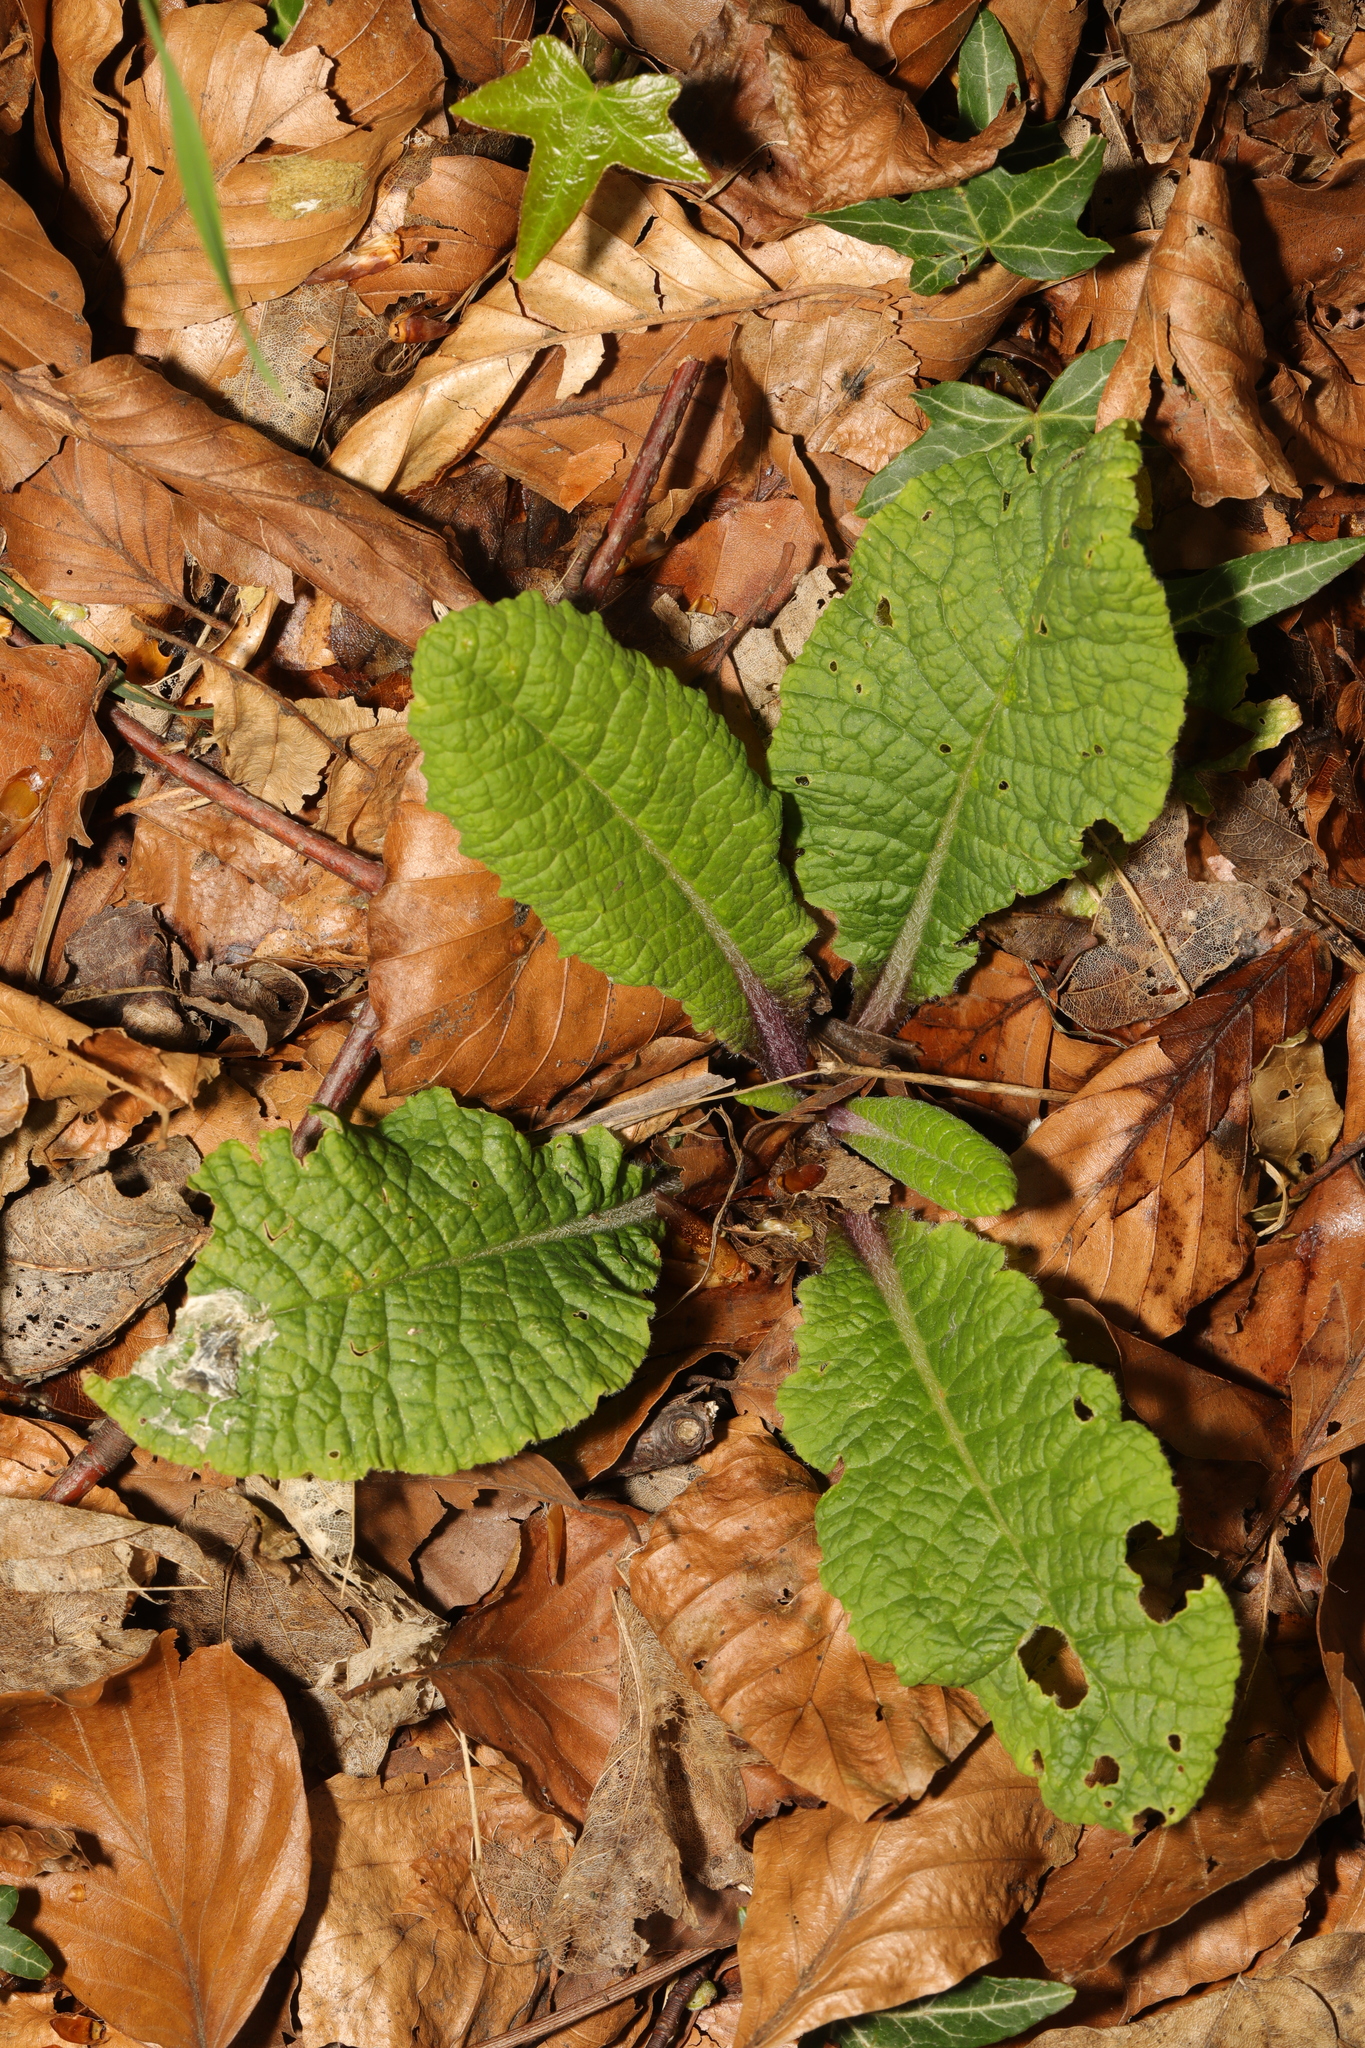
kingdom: Plantae
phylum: Tracheophyta
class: Magnoliopsida
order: Ericales
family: Primulaceae
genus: Primula
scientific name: Primula vulgaris
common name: Primrose
